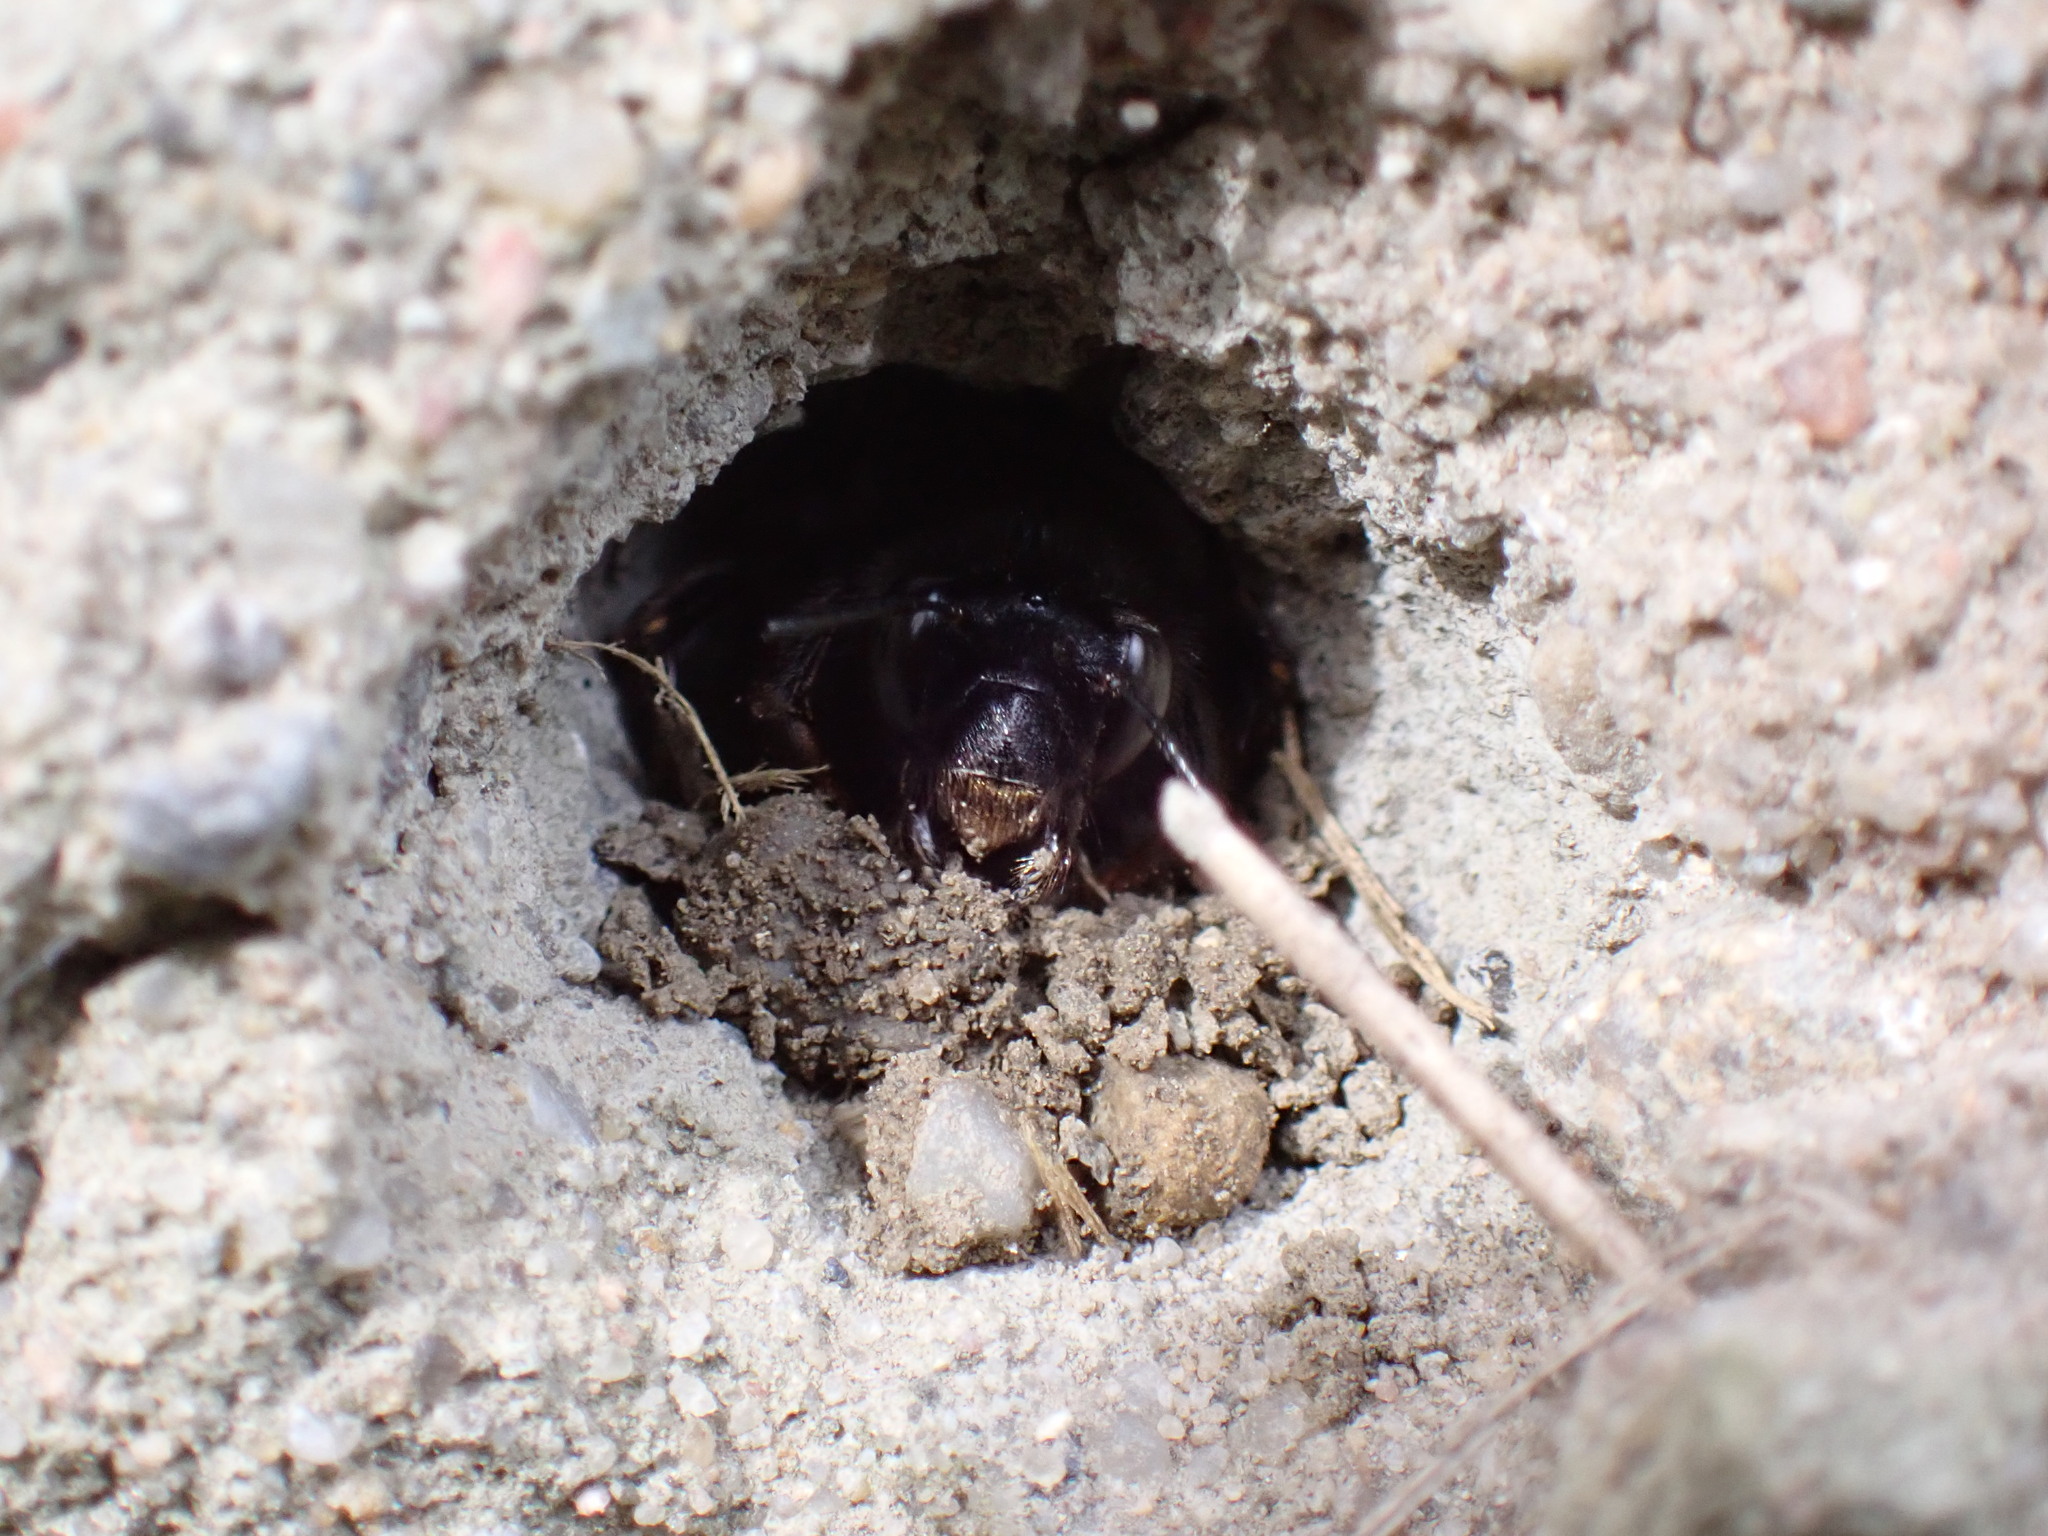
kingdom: Animalia
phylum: Arthropoda
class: Insecta
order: Hymenoptera
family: Apidae
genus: Anthophora
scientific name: Anthophora plumipes
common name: Hairy-footed flower bee
